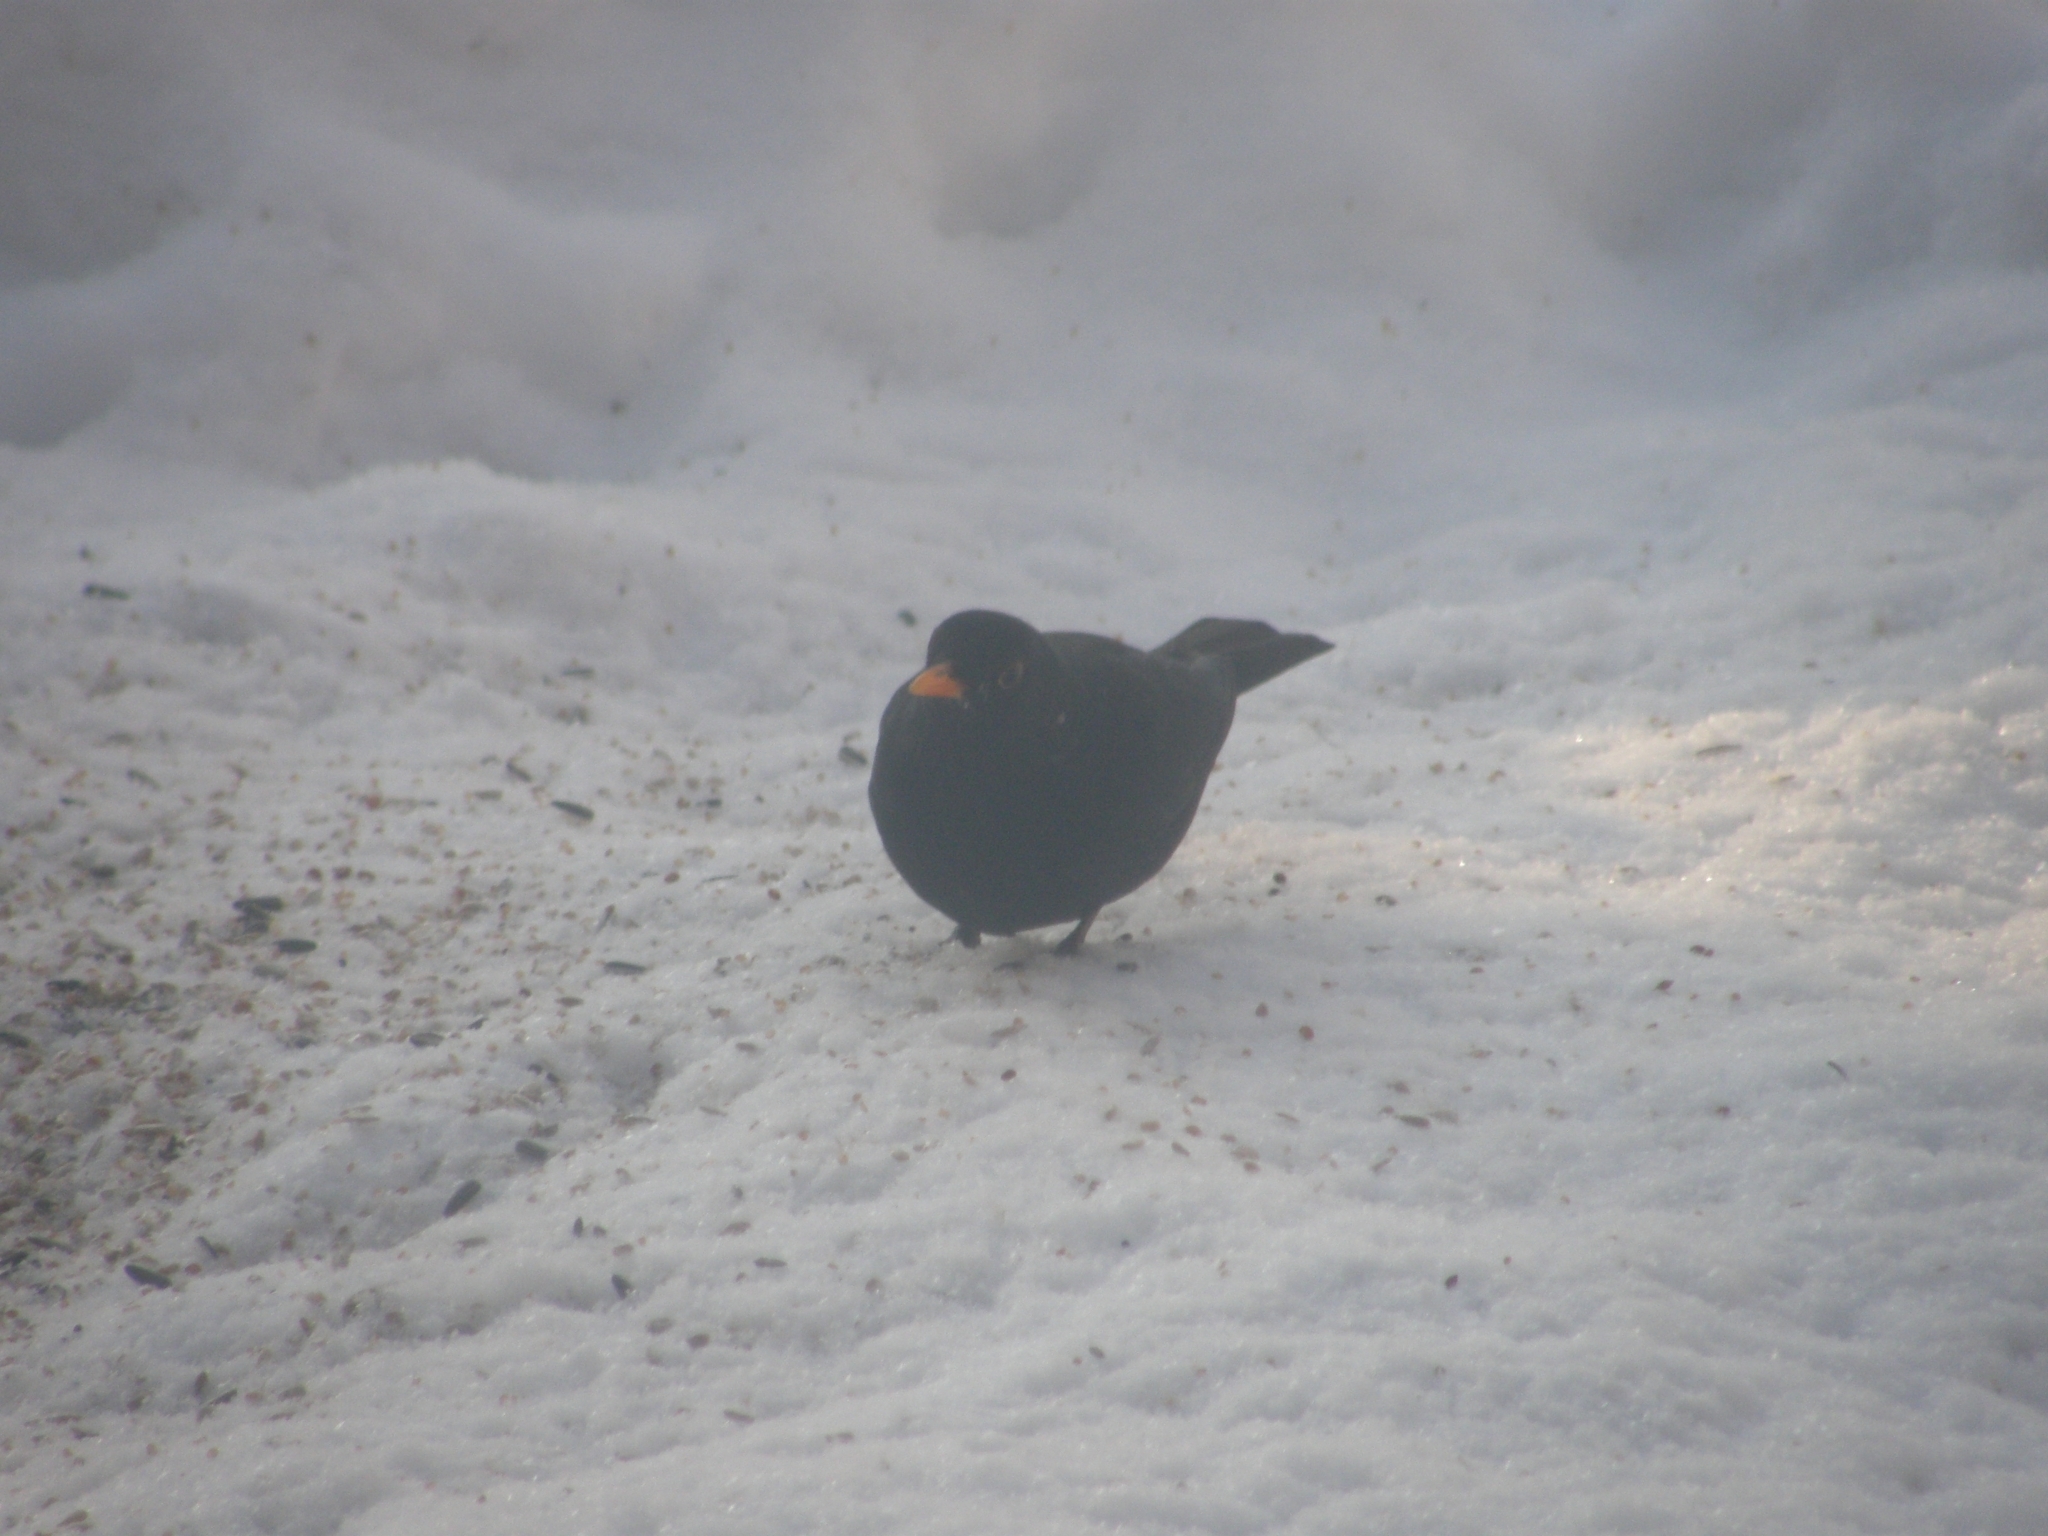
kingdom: Animalia
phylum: Chordata
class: Aves
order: Passeriformes
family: Turdidae
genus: Turdus
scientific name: Turdus merula
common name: Common blackbird
